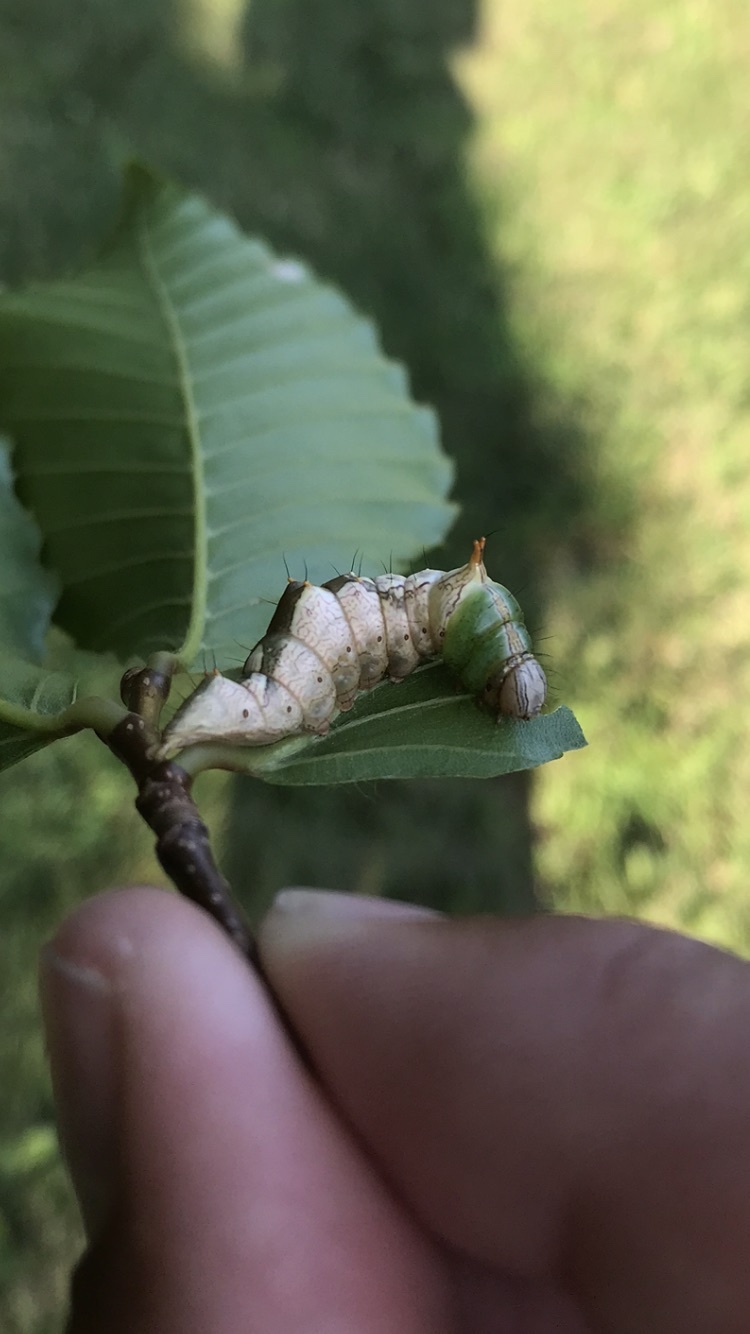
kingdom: Animalia
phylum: Arthropoda
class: Insecta
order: Lepidoptera
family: Notodontidae
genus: Schizura
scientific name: Schizura ipomaeae
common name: Morning-glory prominent
